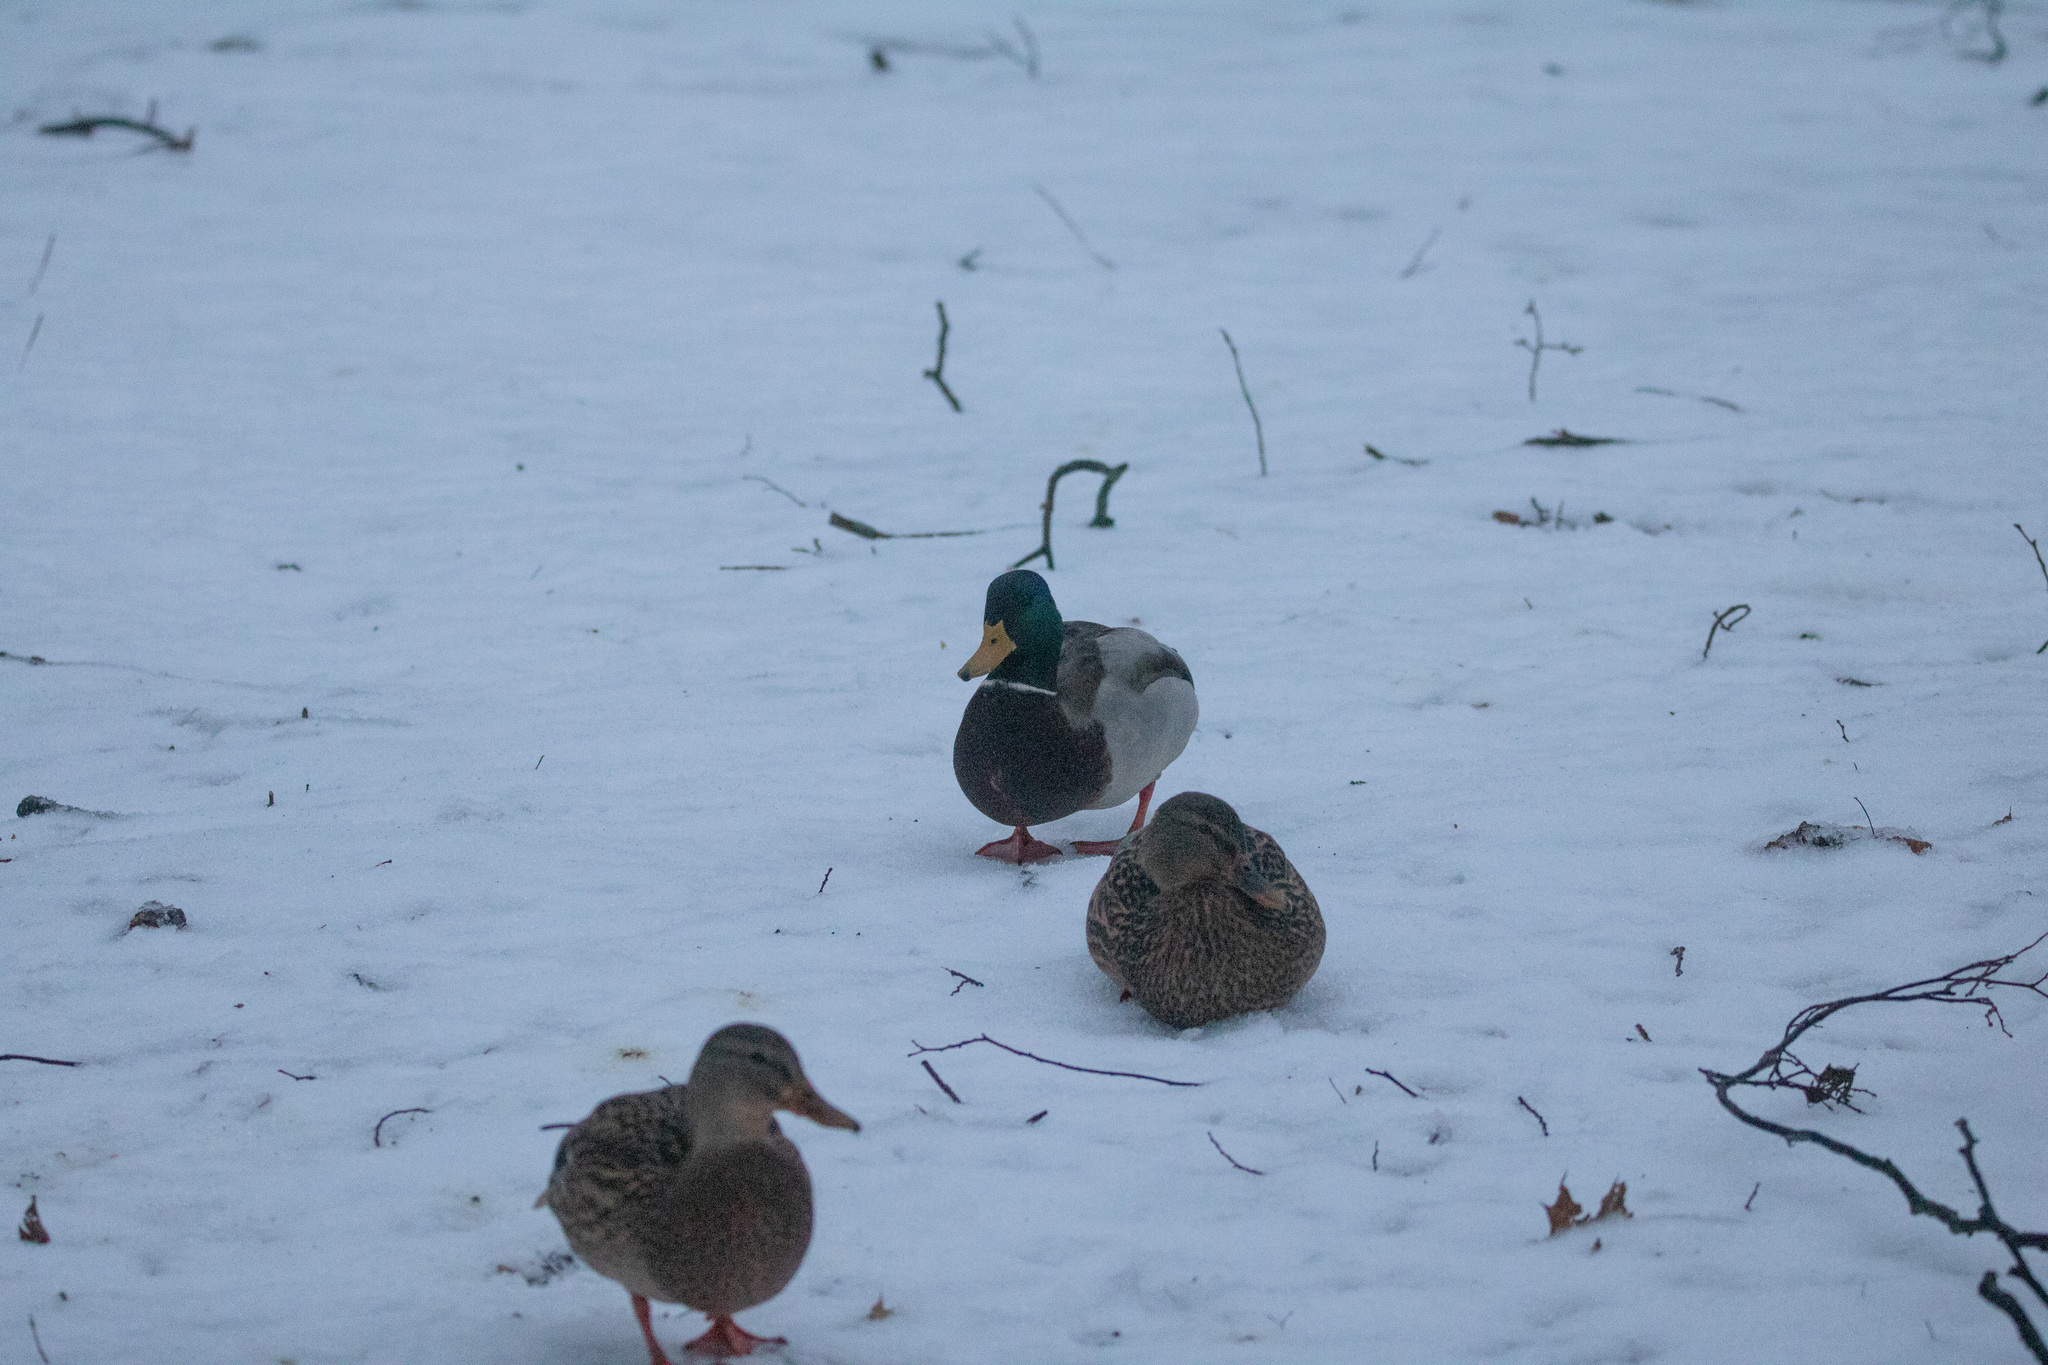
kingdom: Animalia
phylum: Chordata
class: Aves
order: Anseriformes
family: Anatidae
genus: Anas
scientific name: Anas platyrhynchos
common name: Mallard
